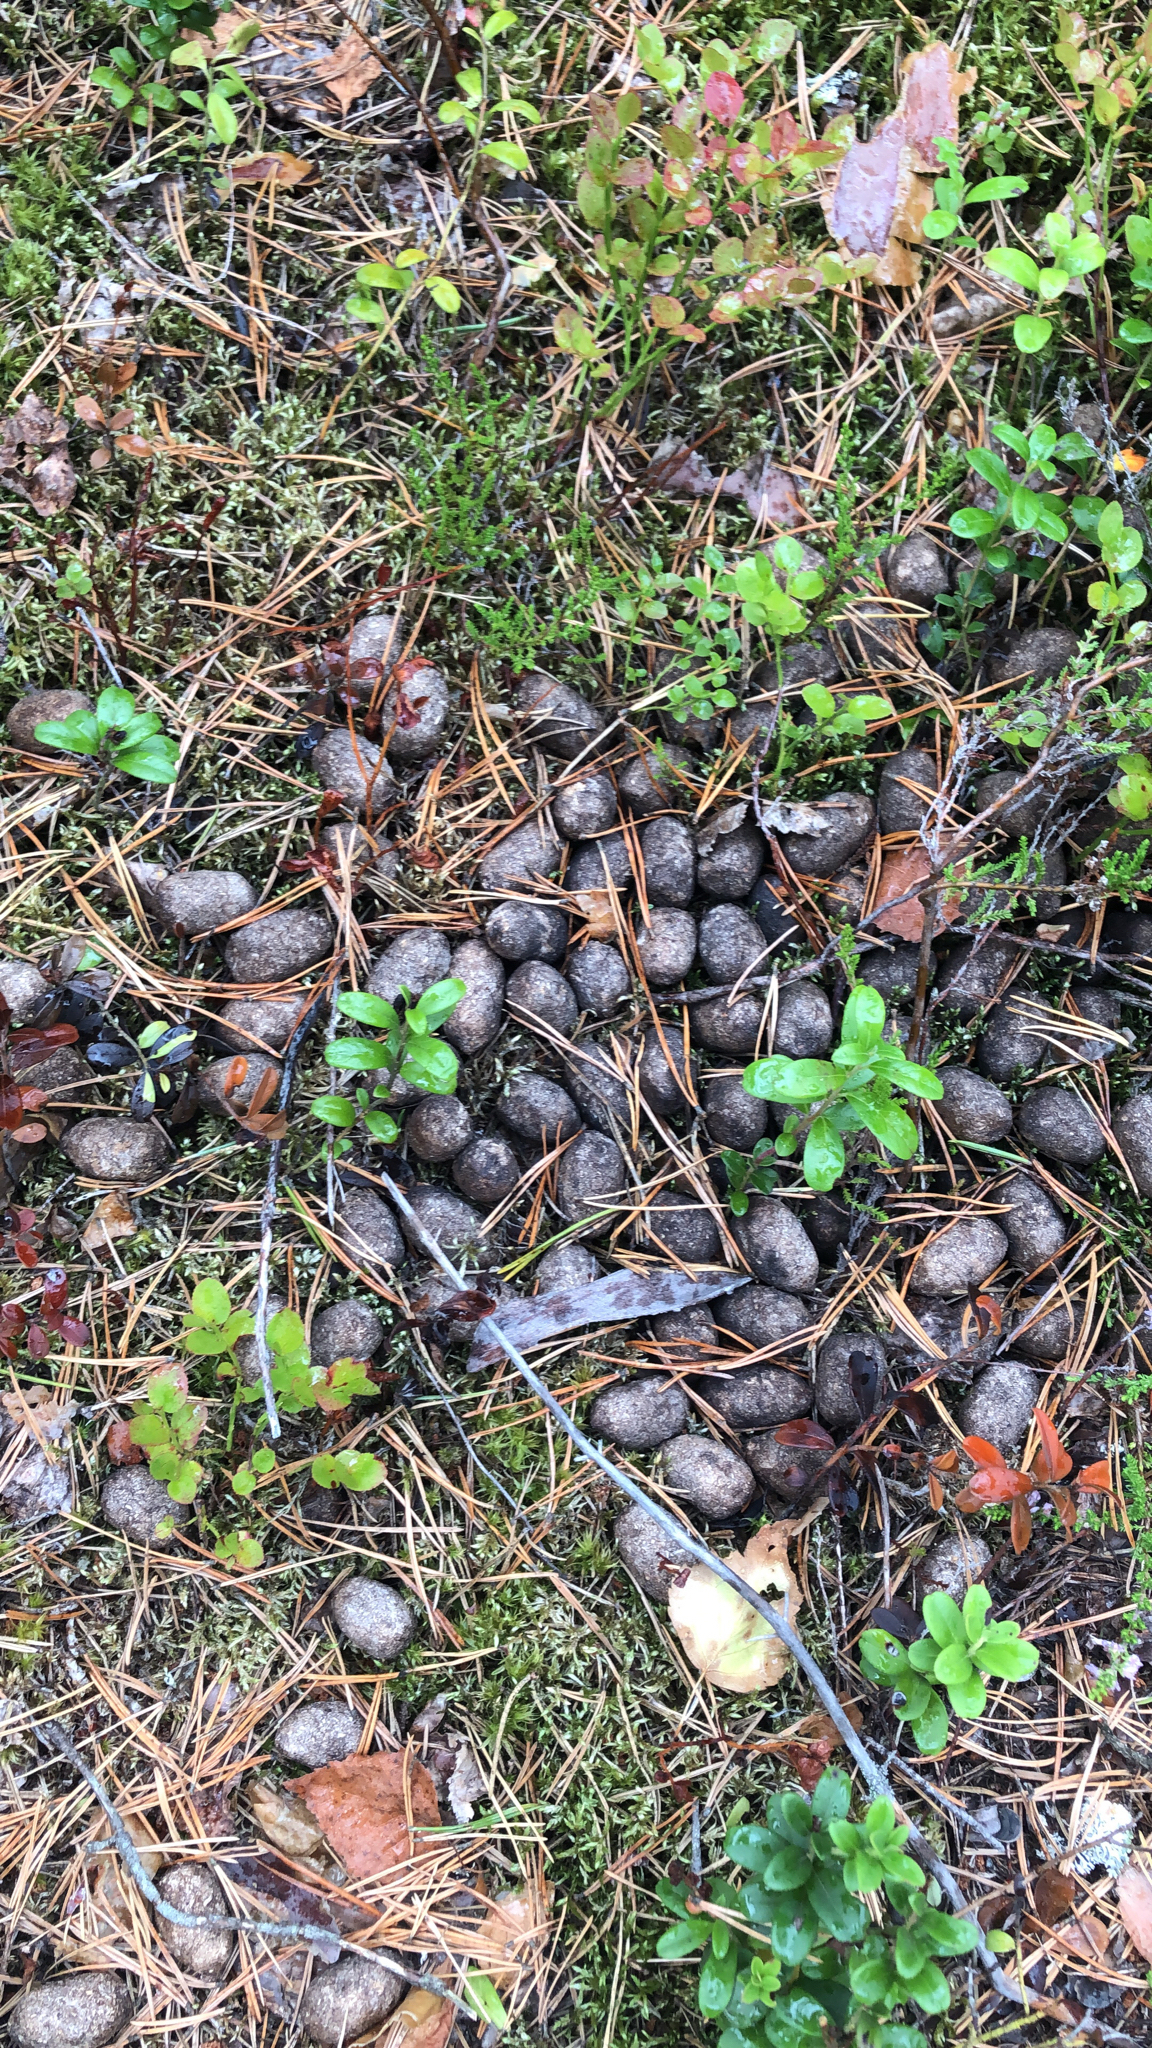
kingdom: Animalia
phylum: Chordata
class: Mammalia
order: Artiodactyla
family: Cervidae
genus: Alces
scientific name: Alces alces
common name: Moose
